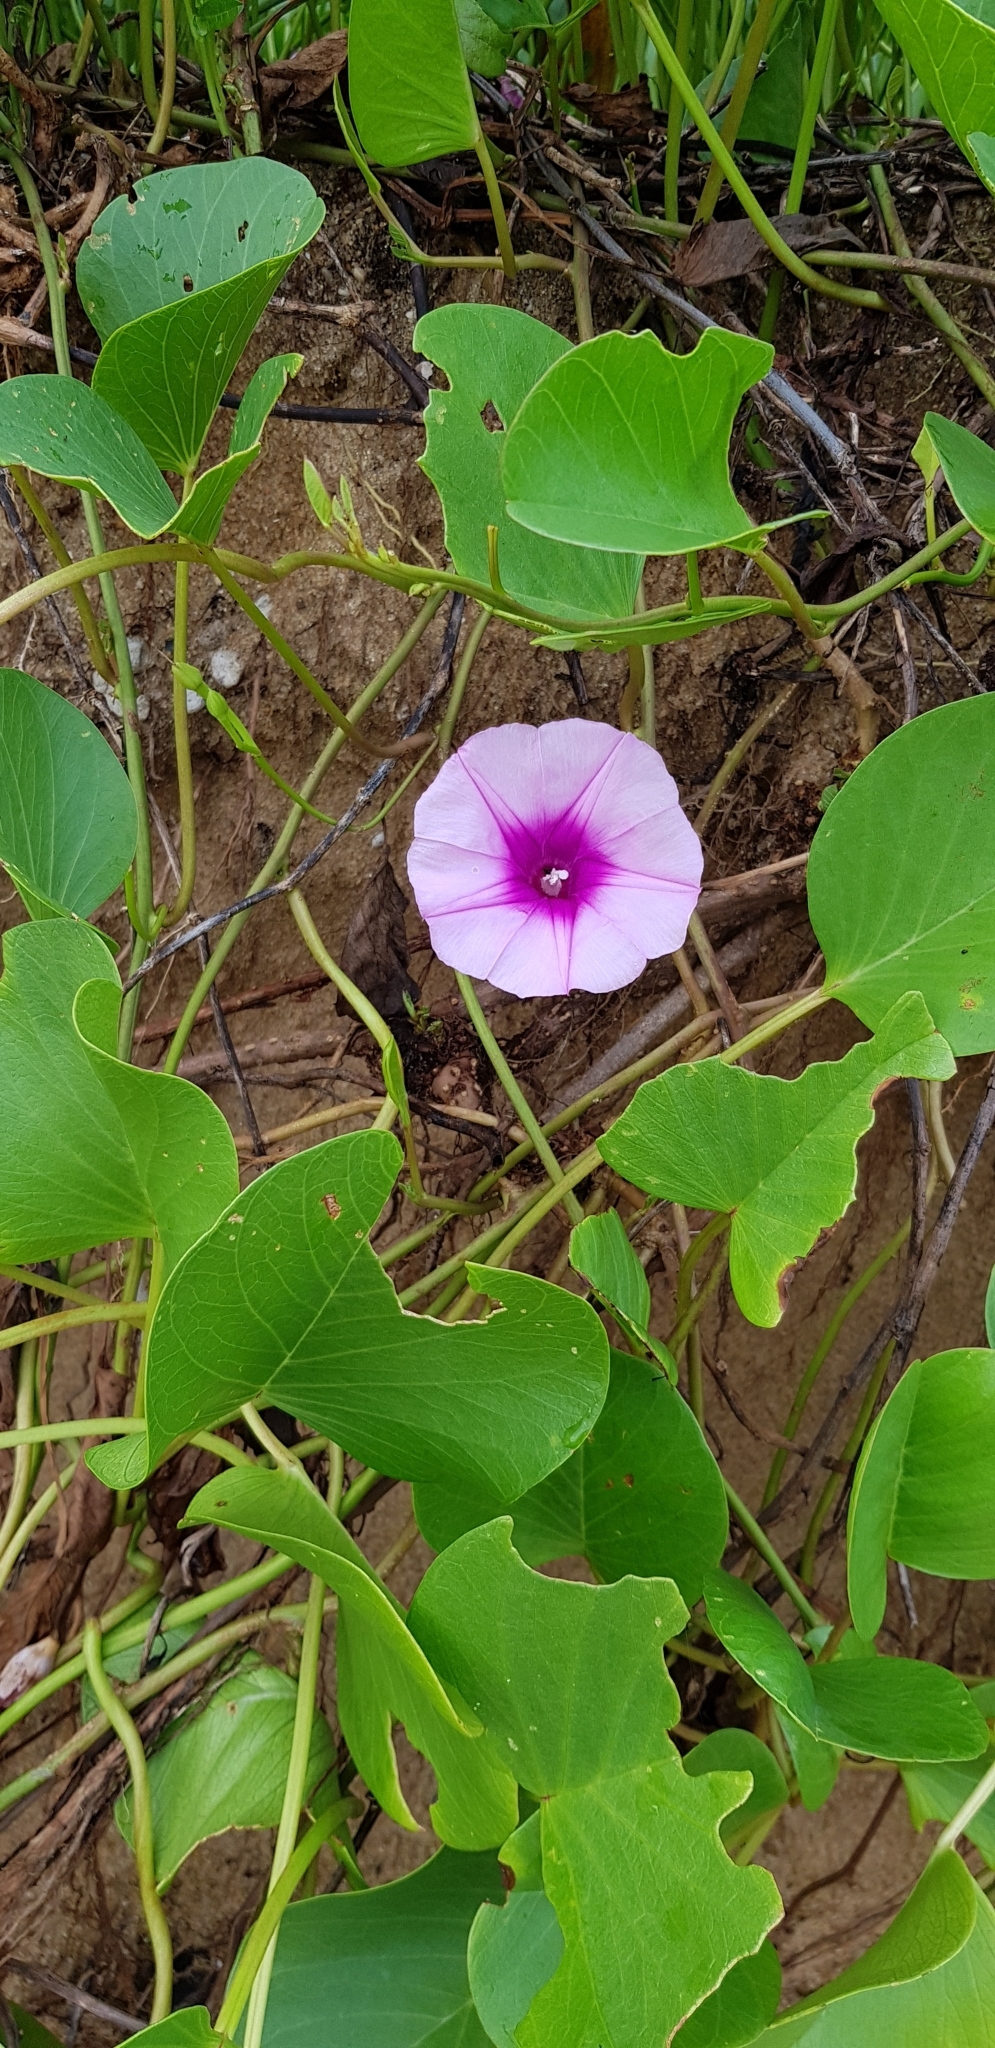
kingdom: Plantae
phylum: Tracheophyta
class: Magnoliopsida
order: Solanales
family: Convolvulaceae
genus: Ipomoea
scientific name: Ipomoea pes-caprae
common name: Beach morning glory
